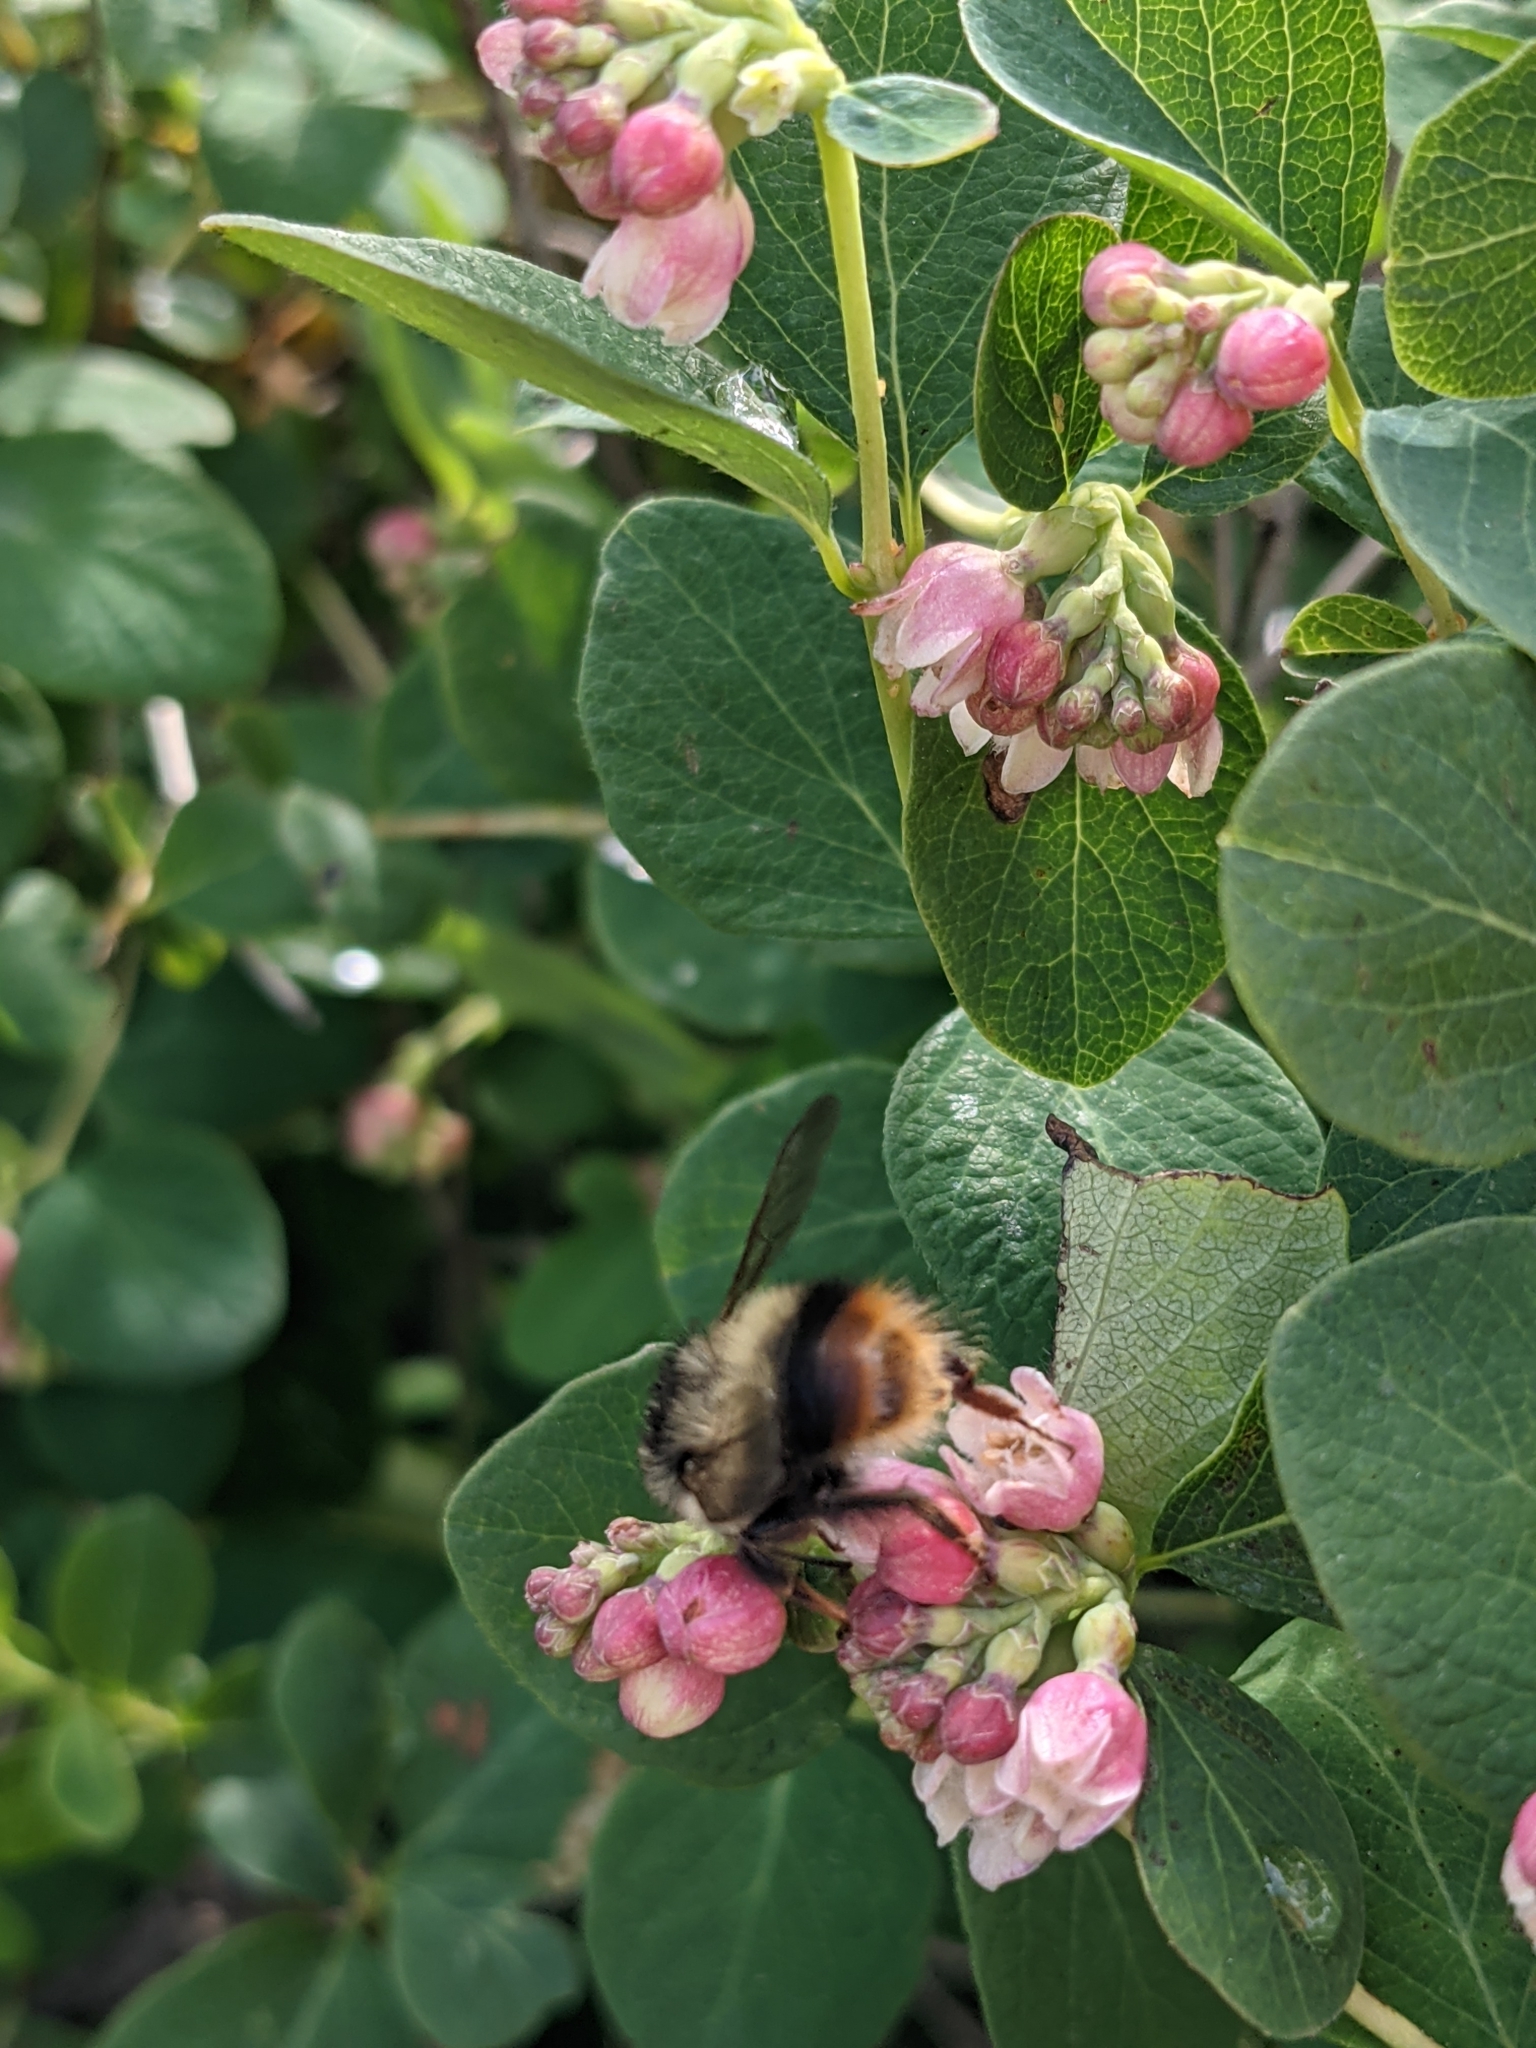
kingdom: Animalia
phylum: Arthropoda
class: Insecta
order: Hymenoptera
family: Apidae
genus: Bombus
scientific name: Bombus mixtus
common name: Fuzzy-horned bumble bee
